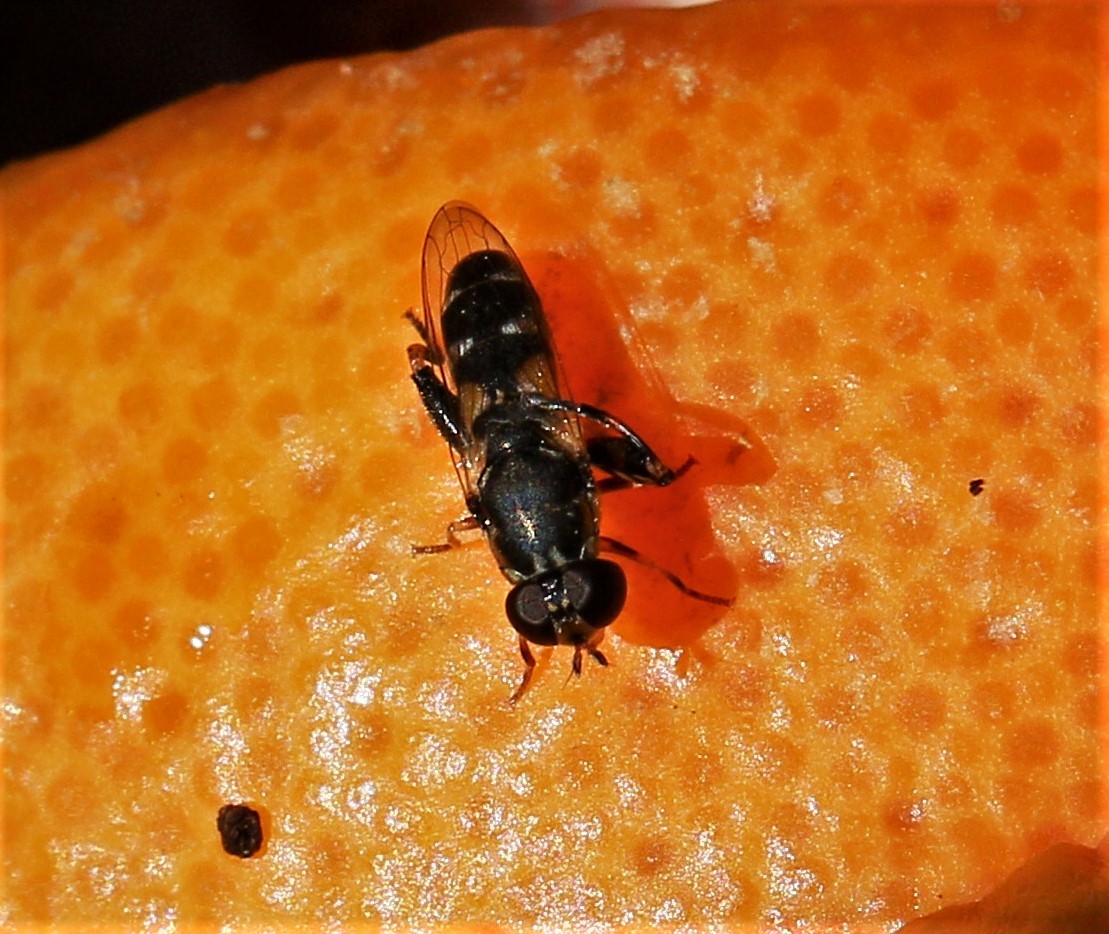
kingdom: Animalia
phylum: Arthropoda
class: Insecta
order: Diptera
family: Syrphidae
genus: Syritta
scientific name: Syritta pipiens
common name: Hover fly
